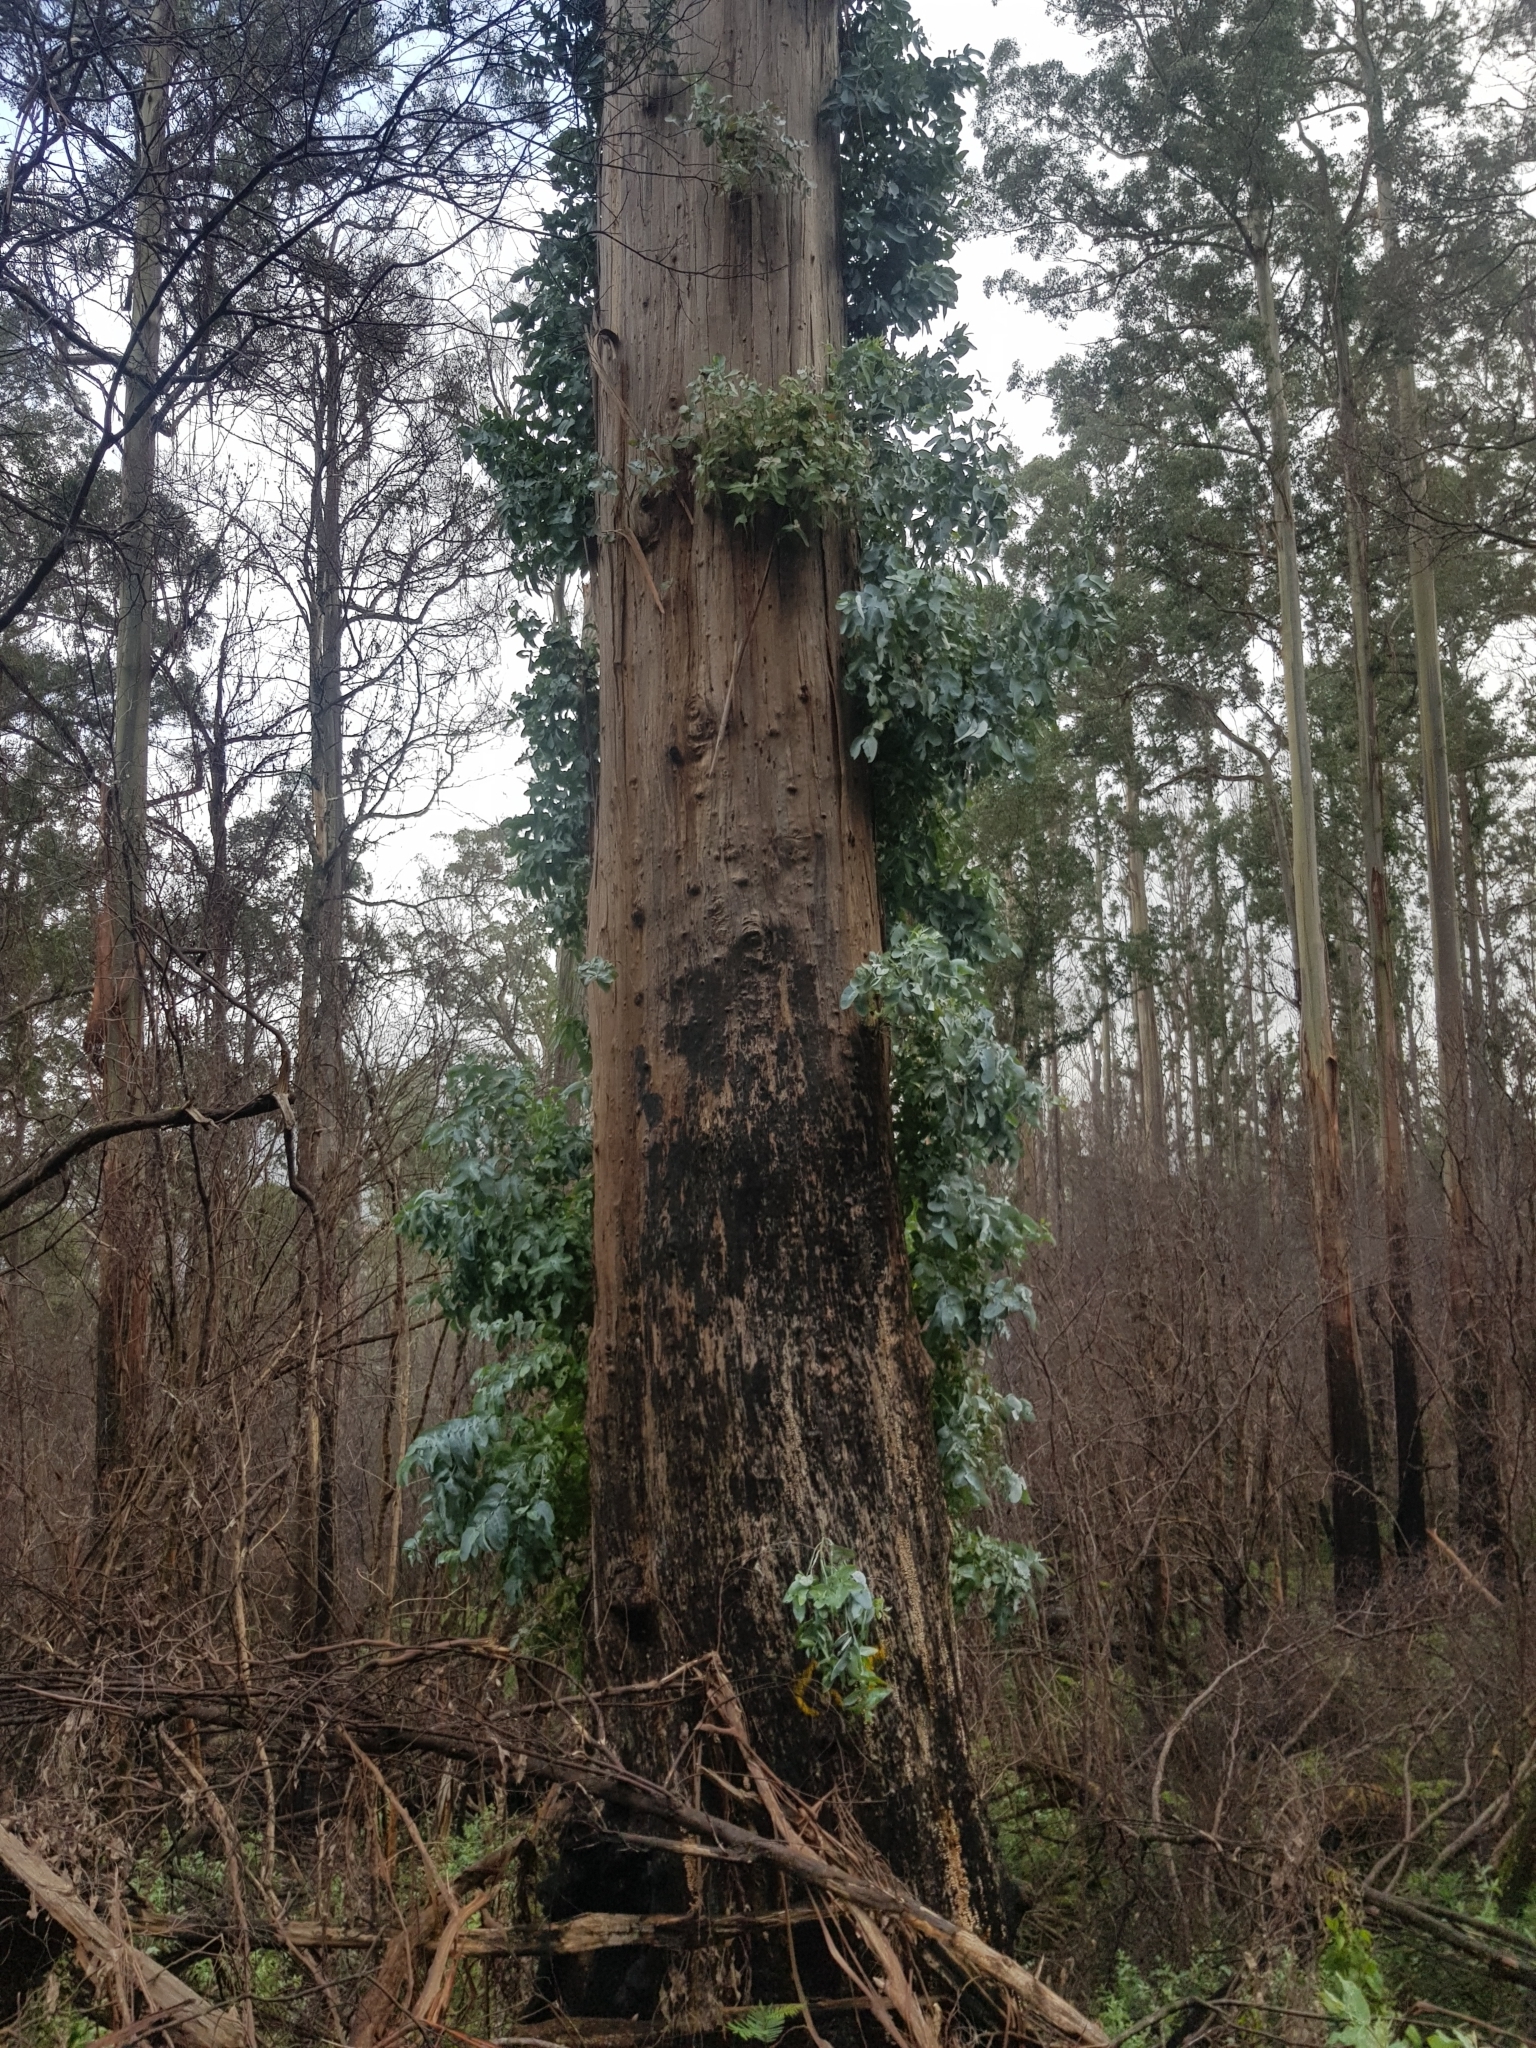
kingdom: Plantae
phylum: Tracheophyta
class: Magnoliopsida
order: Myrtales
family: Myrtaceae
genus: Eucalyptus
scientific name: Eucalyptus globulus
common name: Southern blue-gum
